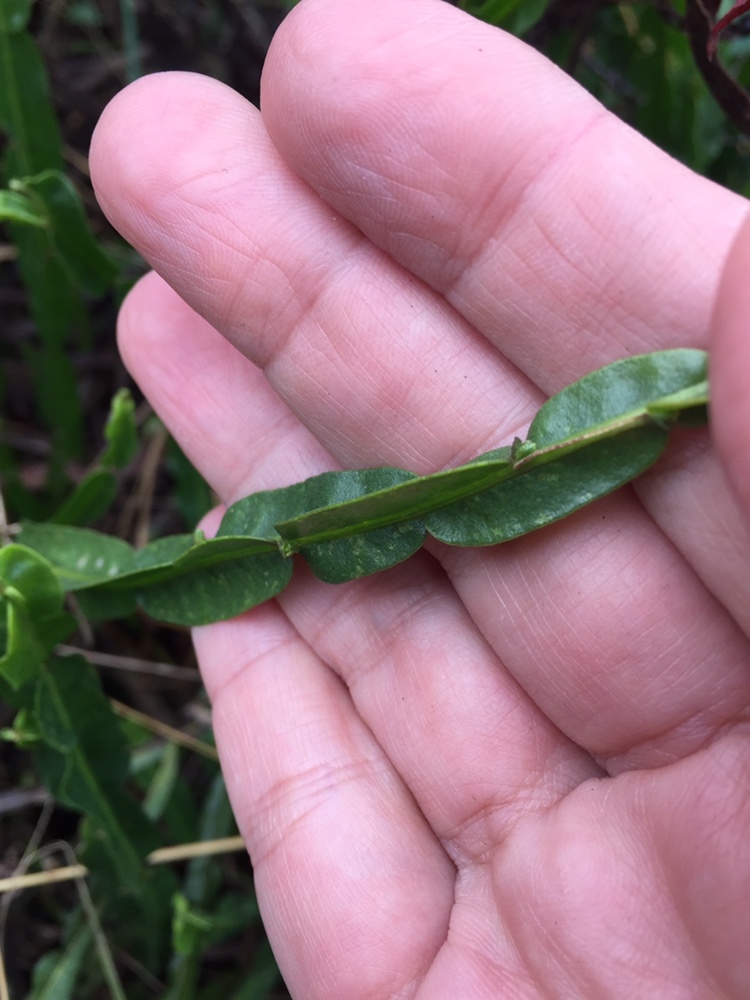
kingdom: Plantae
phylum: Tracheophyta
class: Magnoliopsida
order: Asterales
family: Asteraceae
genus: Baccharis
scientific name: Baccharis trimera
